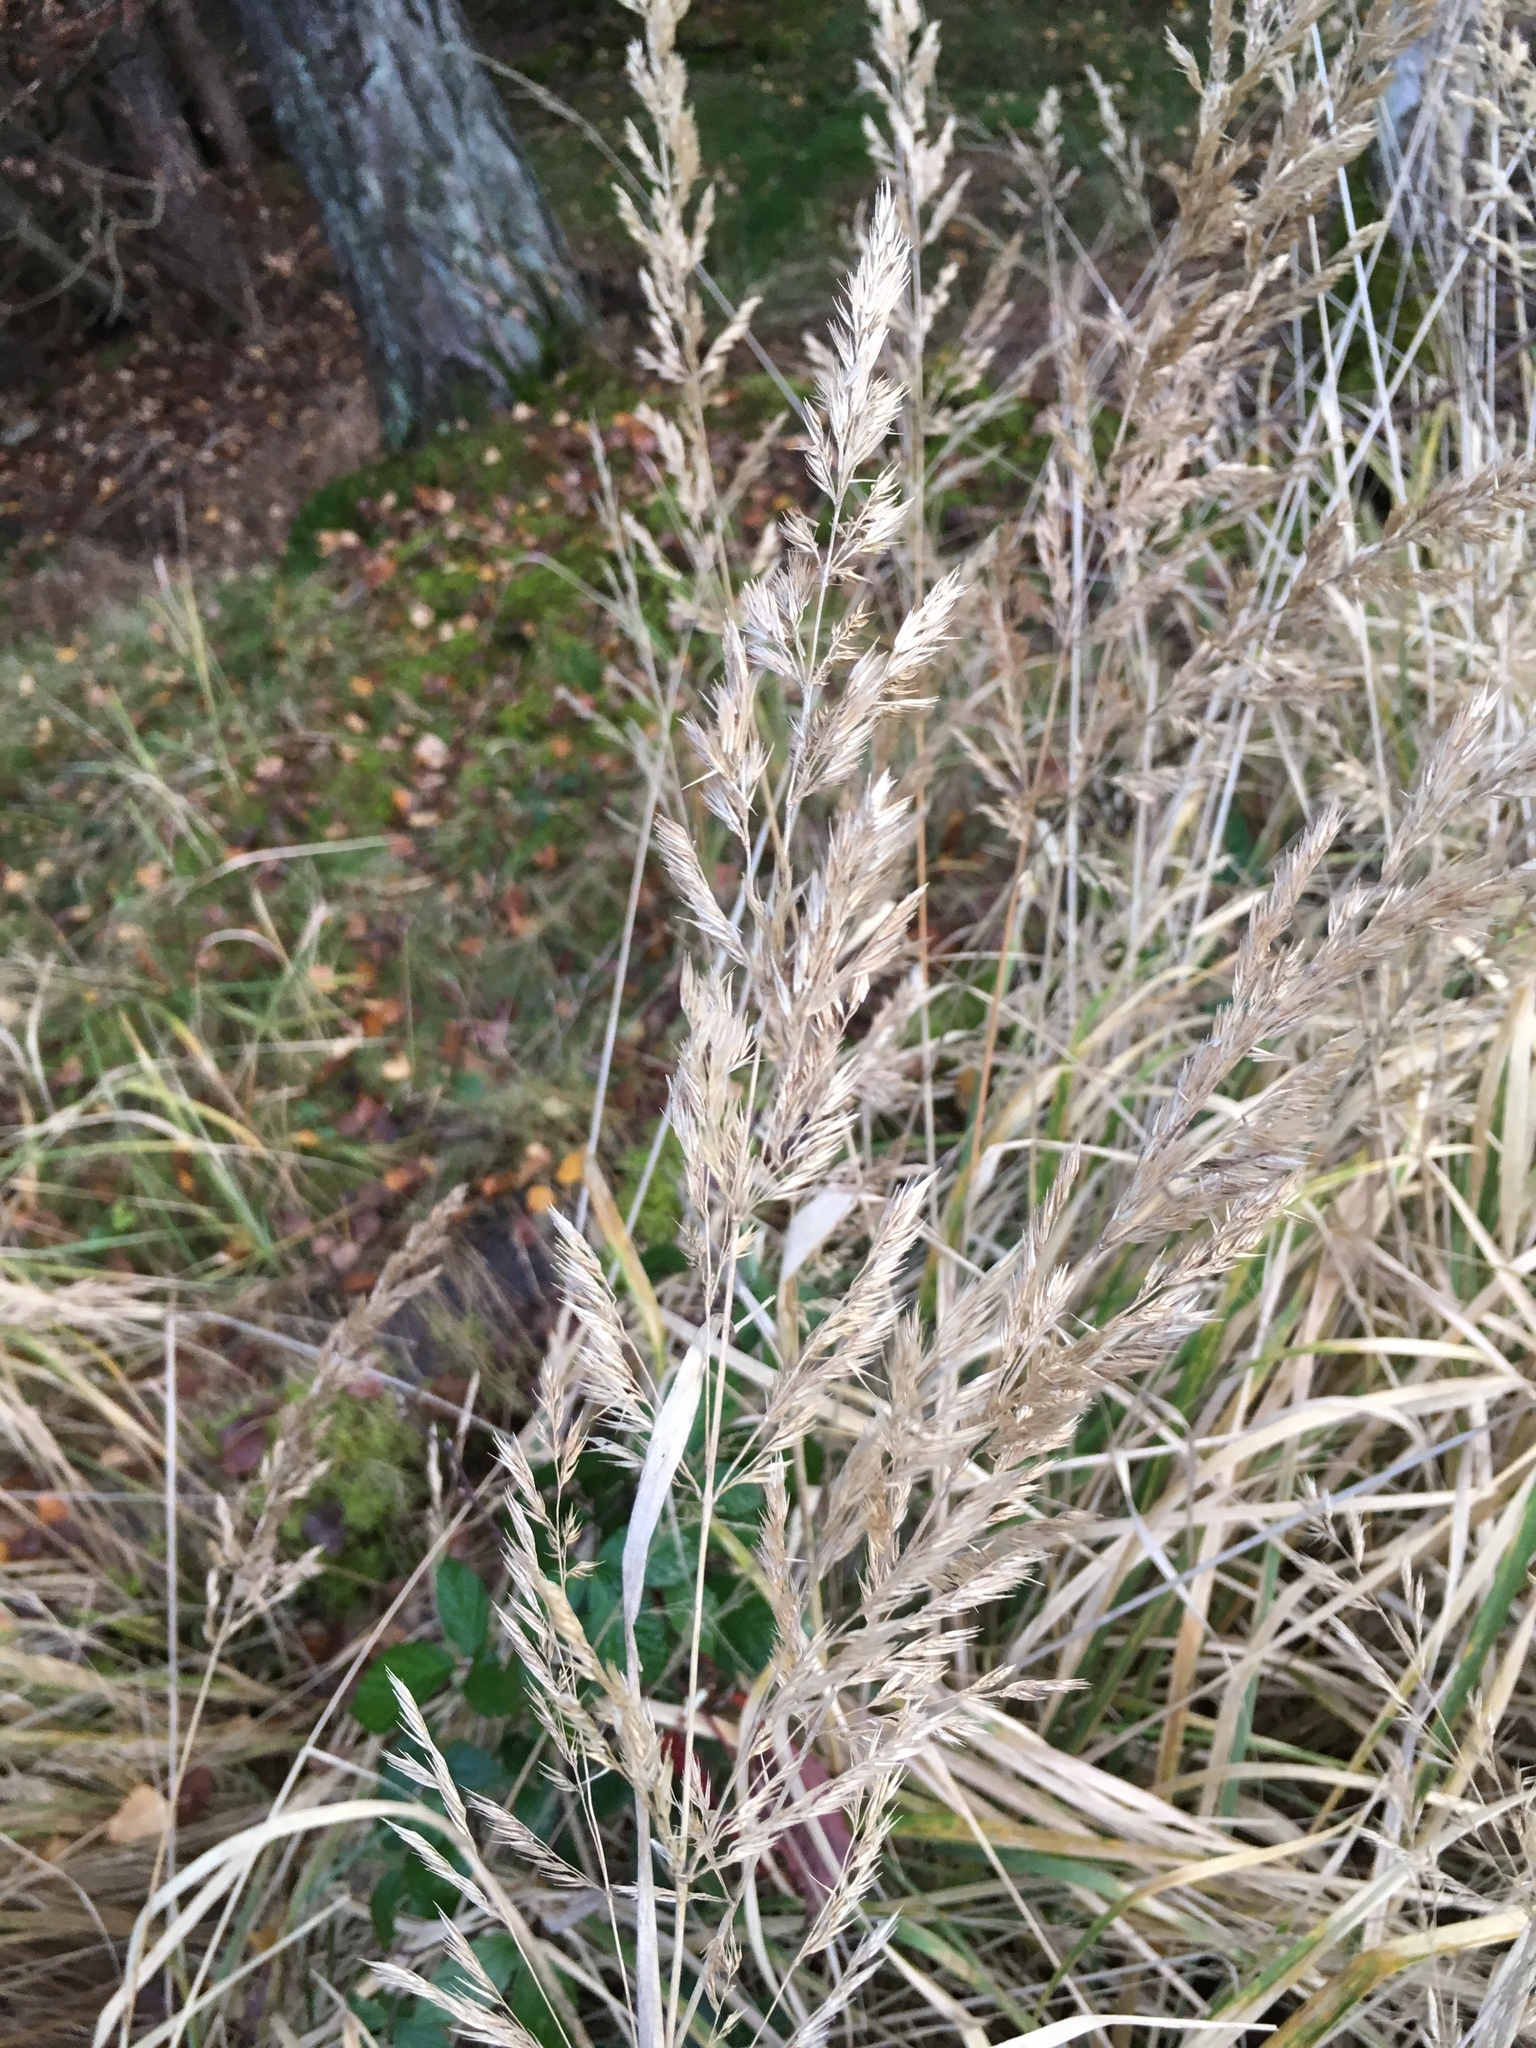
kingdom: Plantae
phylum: Tracheophyta
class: Liliopsida
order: Poales
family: Poaceae
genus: Calamagrostis
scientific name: Calamagrostis epigejos
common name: Wood small-reed
